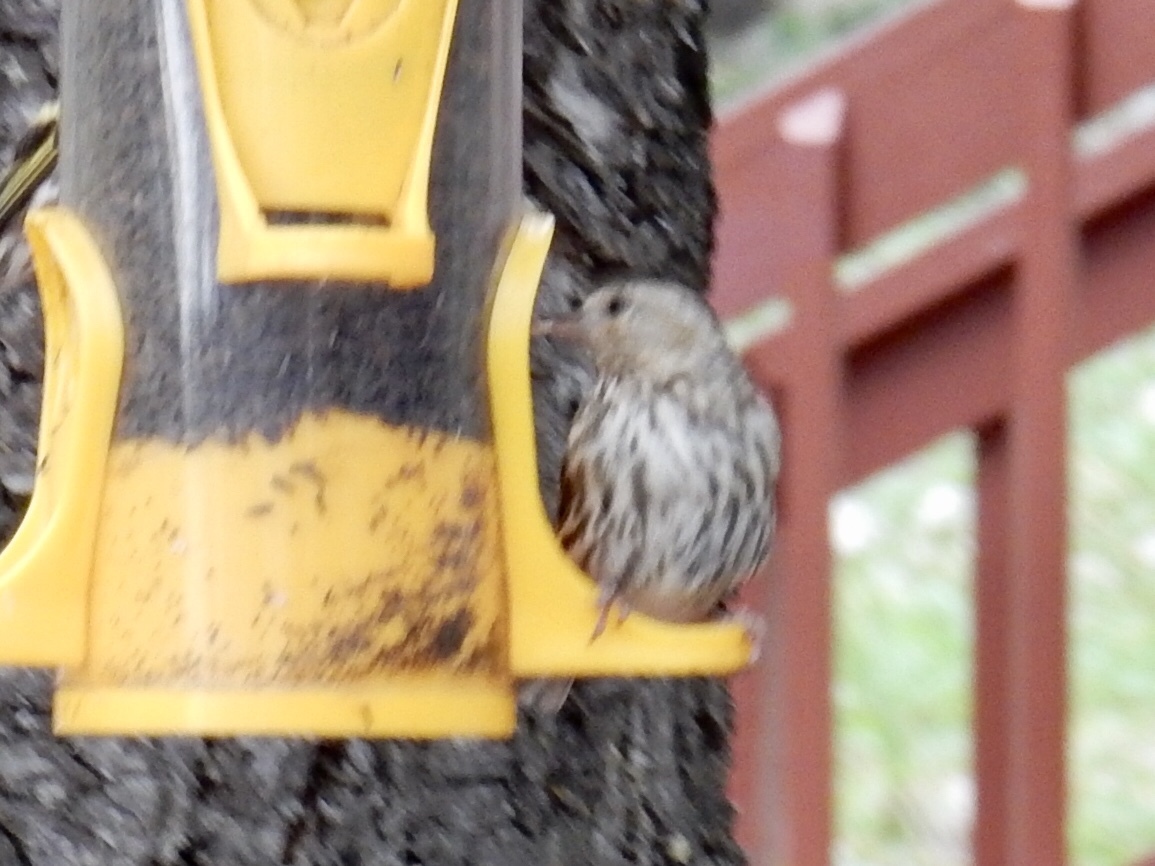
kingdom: Animalia
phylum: Chordata
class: Aves
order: Passeriformes
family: Fringillidae
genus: Spinus
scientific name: Spinus pinus
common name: Pine siskin
